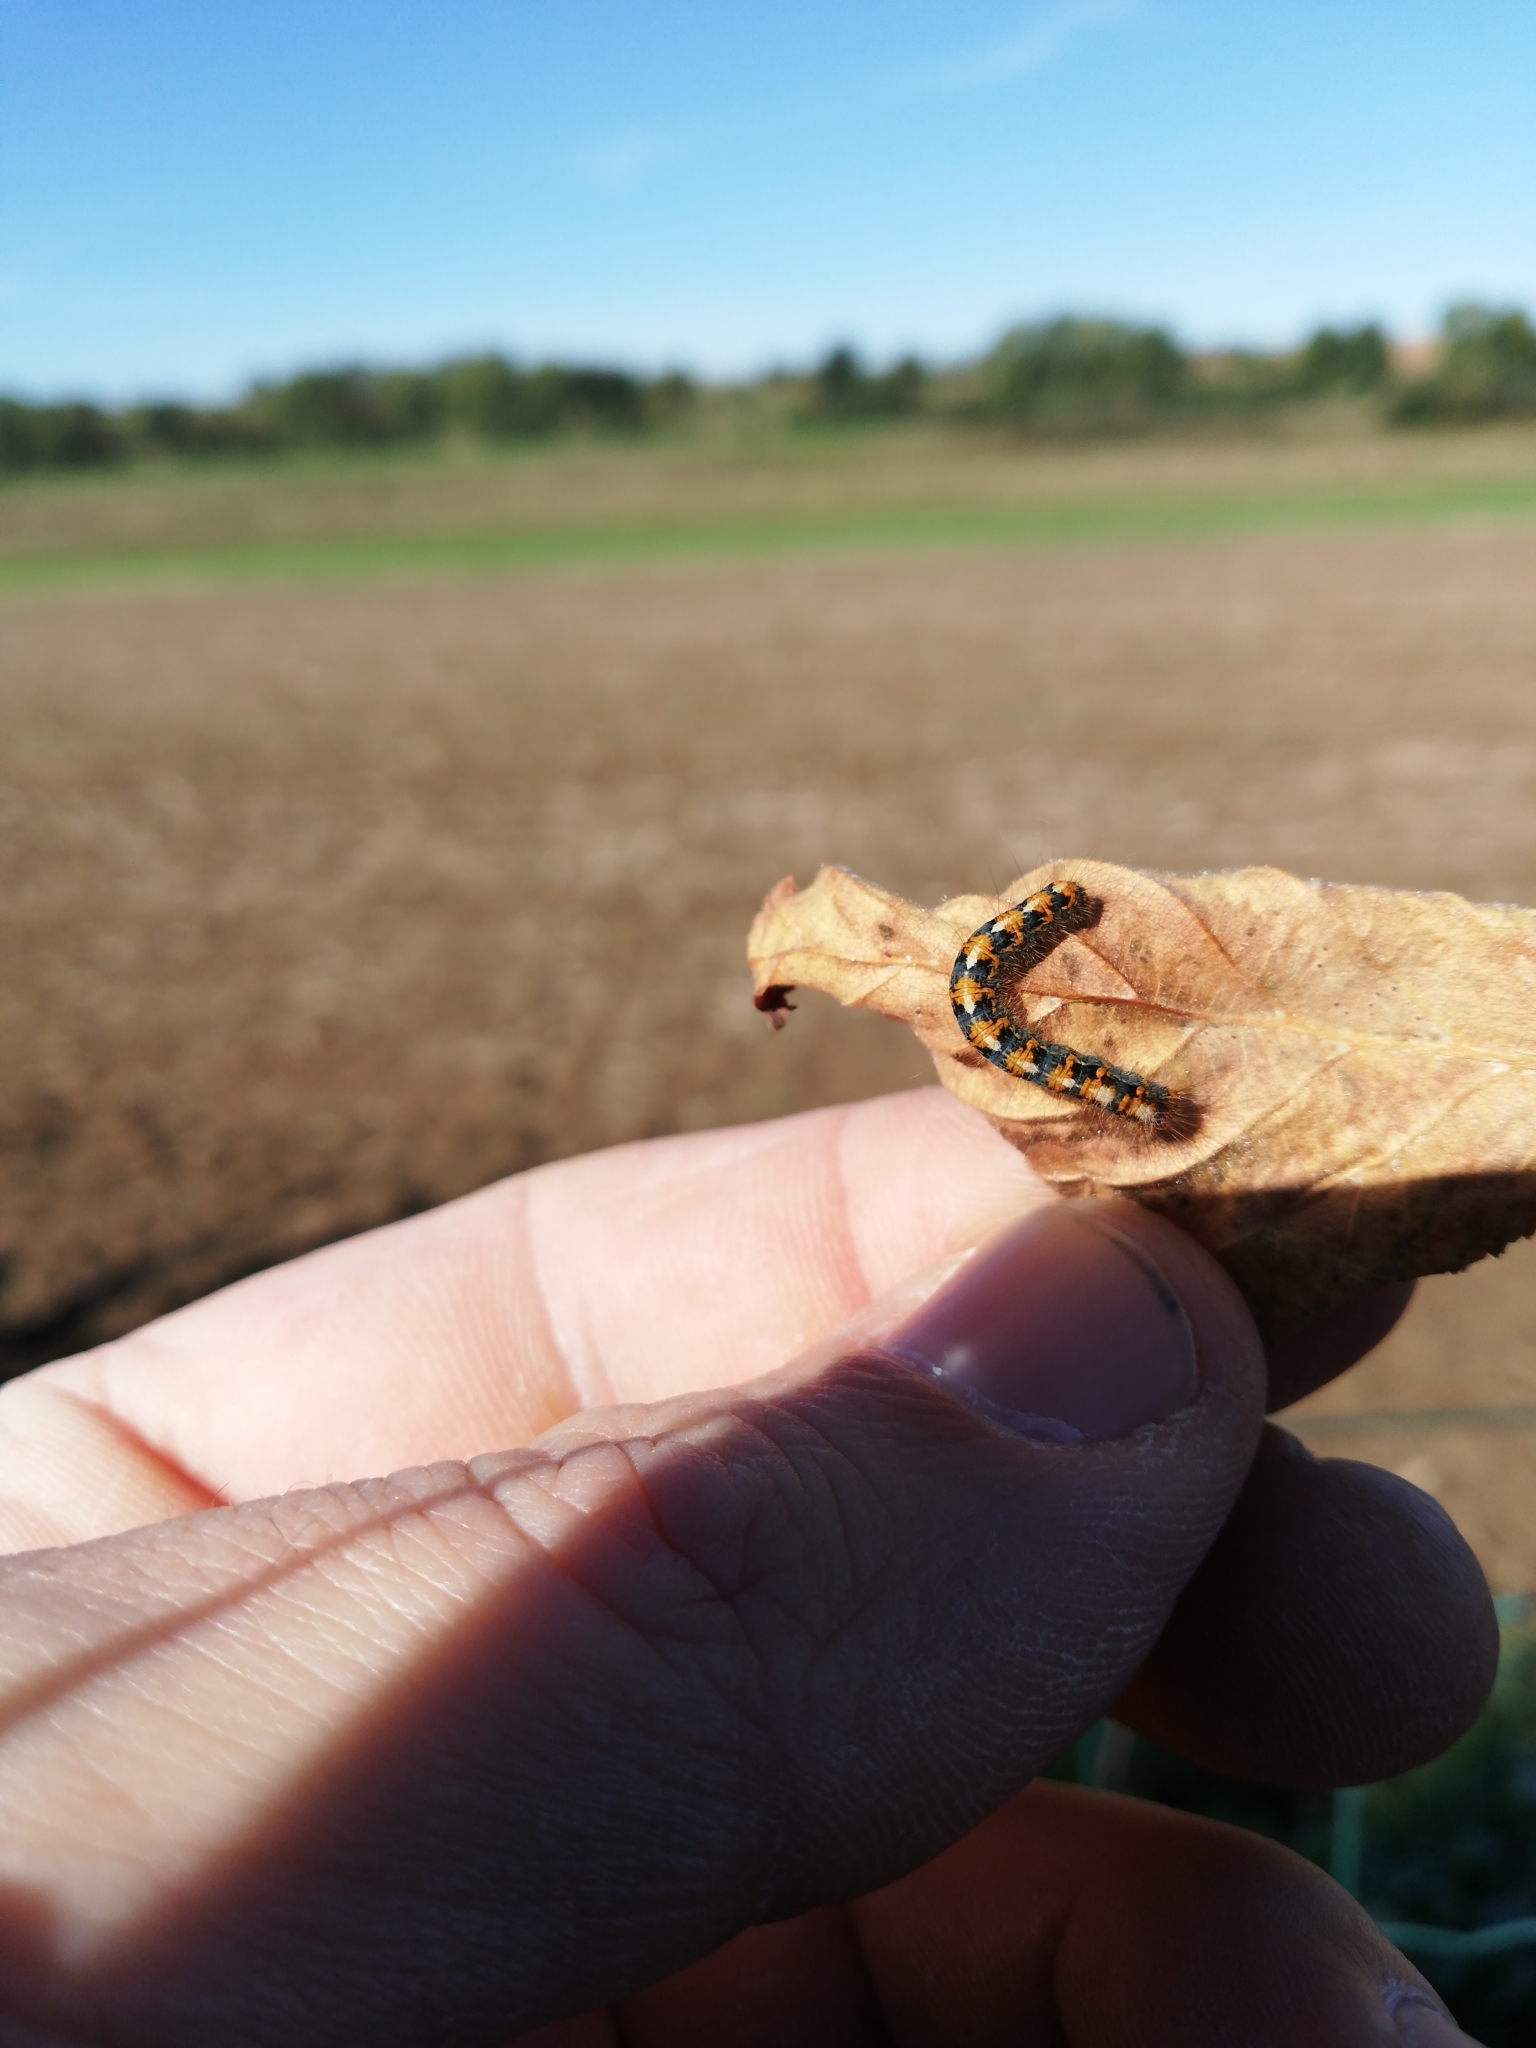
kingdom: Animalia
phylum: Arthropoda
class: Insecta
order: Lepidoptera
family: Lasiocampidae
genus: Lasiocampa
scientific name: Lasiocampa quercus
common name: Oak eggar
